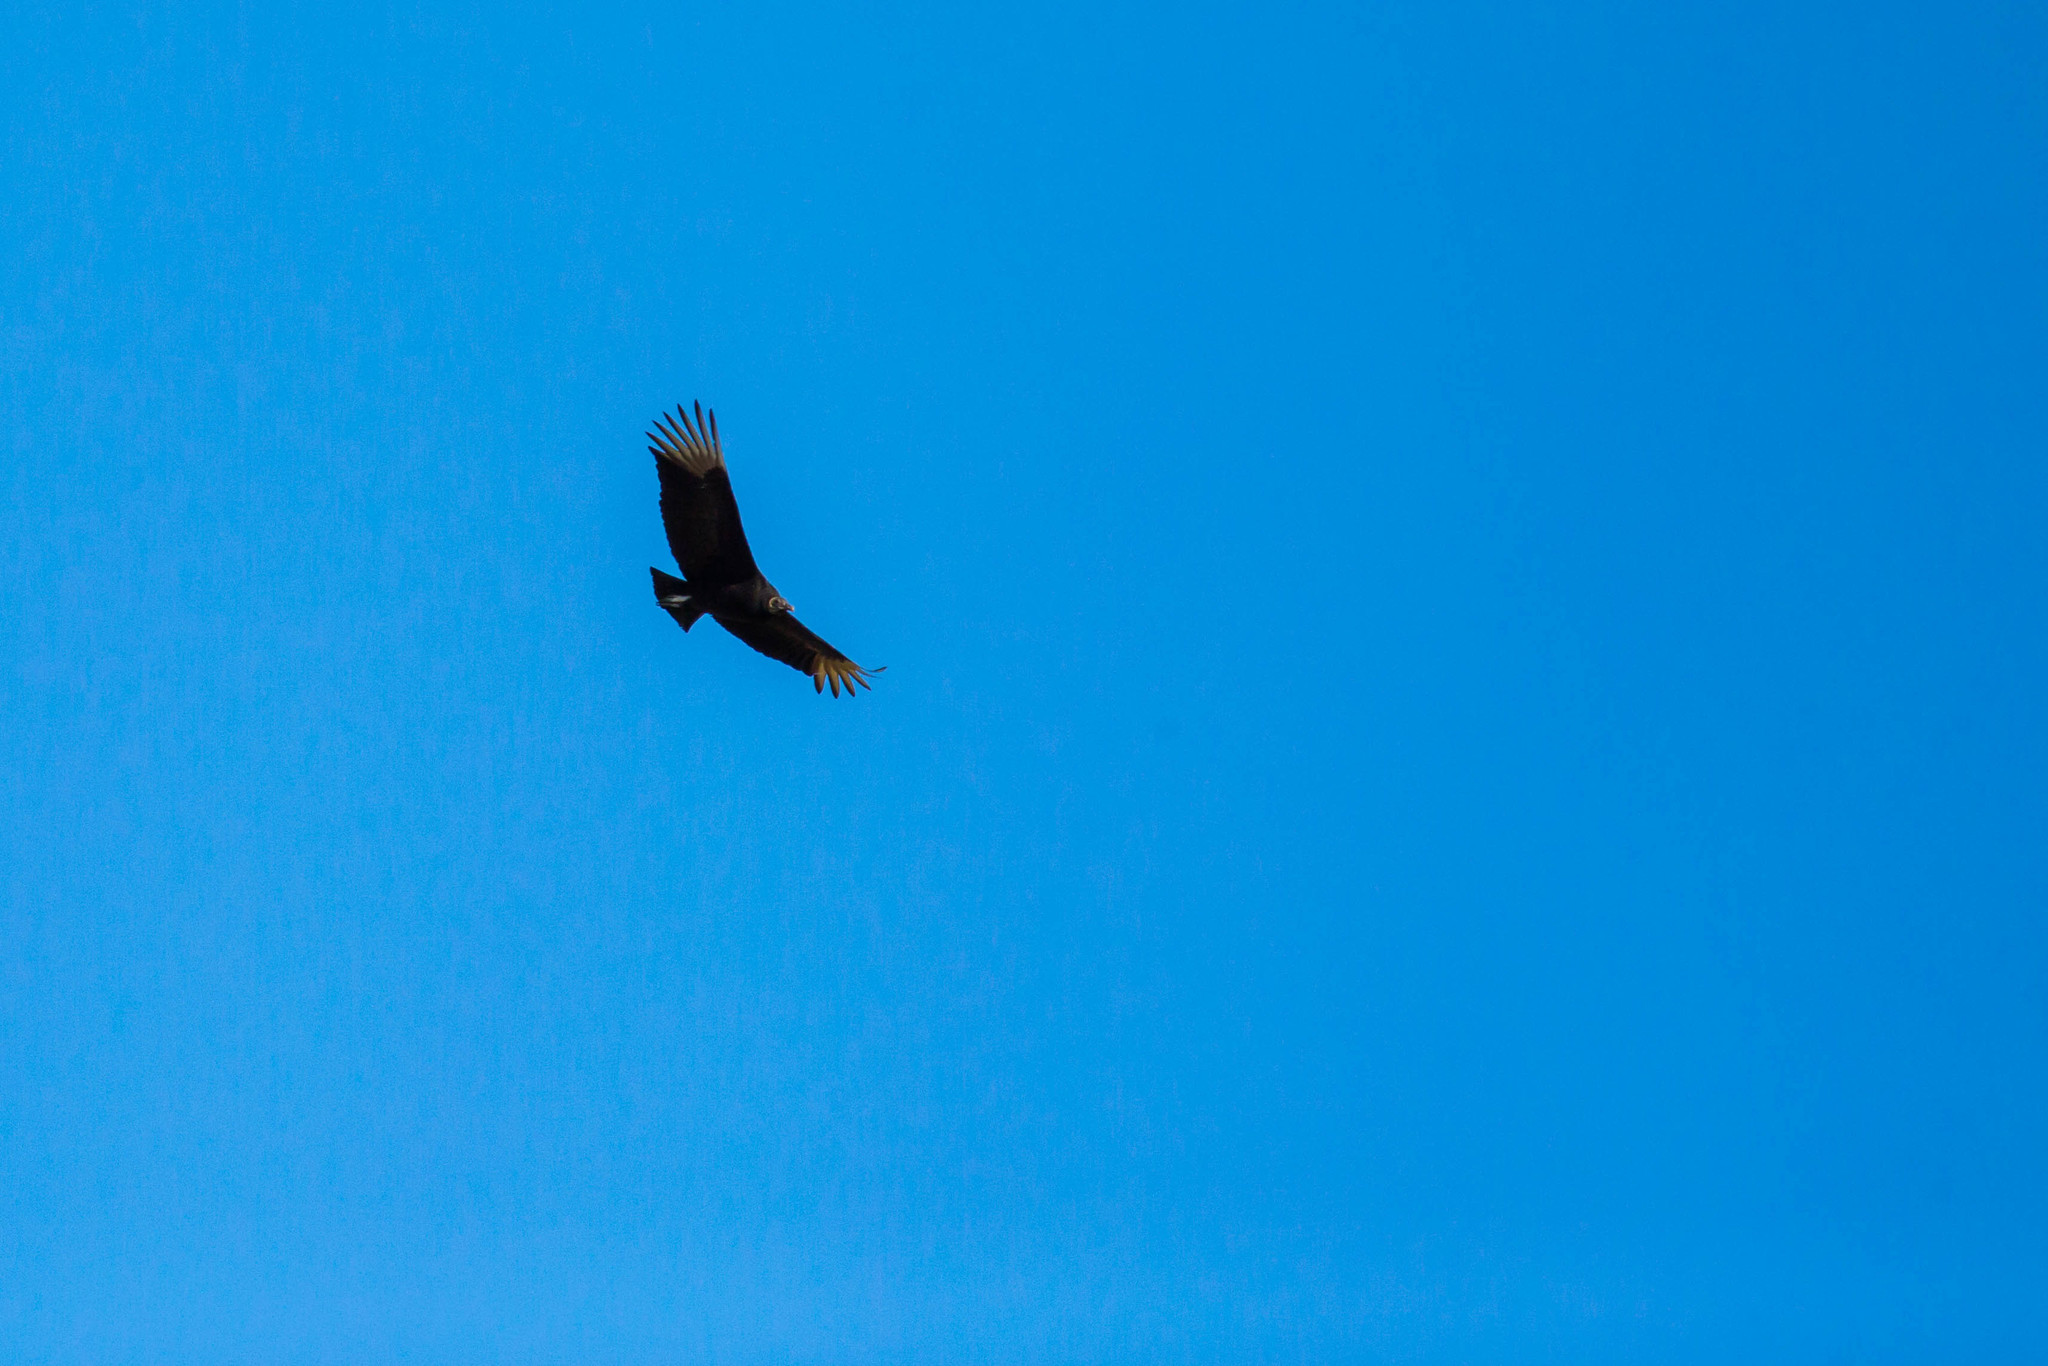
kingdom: Animalia
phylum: Chordata
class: Aves
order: Accipitriformes
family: Cathartidae
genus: Coragyps
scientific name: Coragyps atratus
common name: Black vulture
